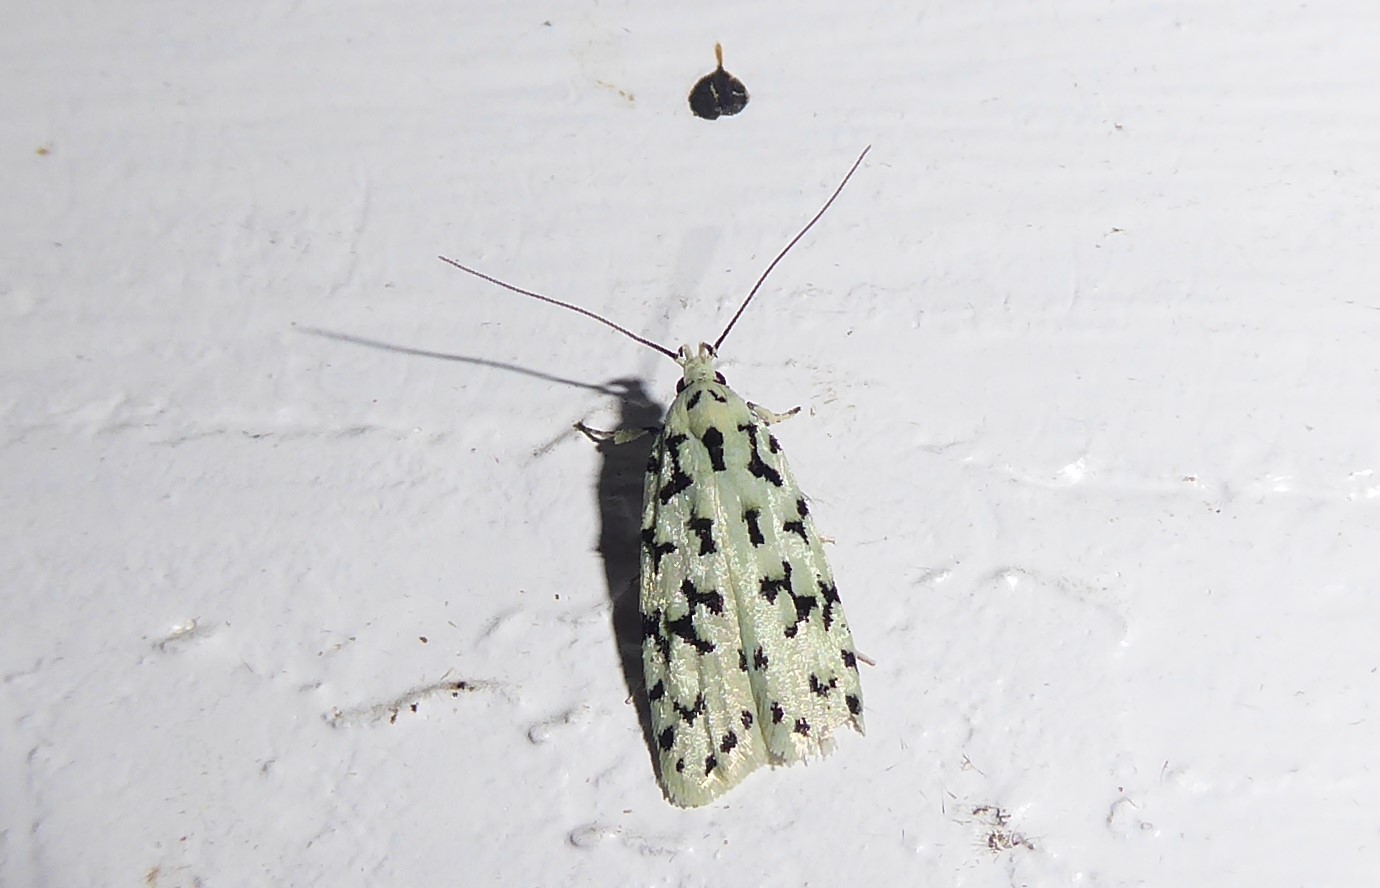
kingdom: Animalia
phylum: Arthropoda
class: Insecta
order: Lepidoptera
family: Oecophoridae
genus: Izatha
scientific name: Izatha huttoni
